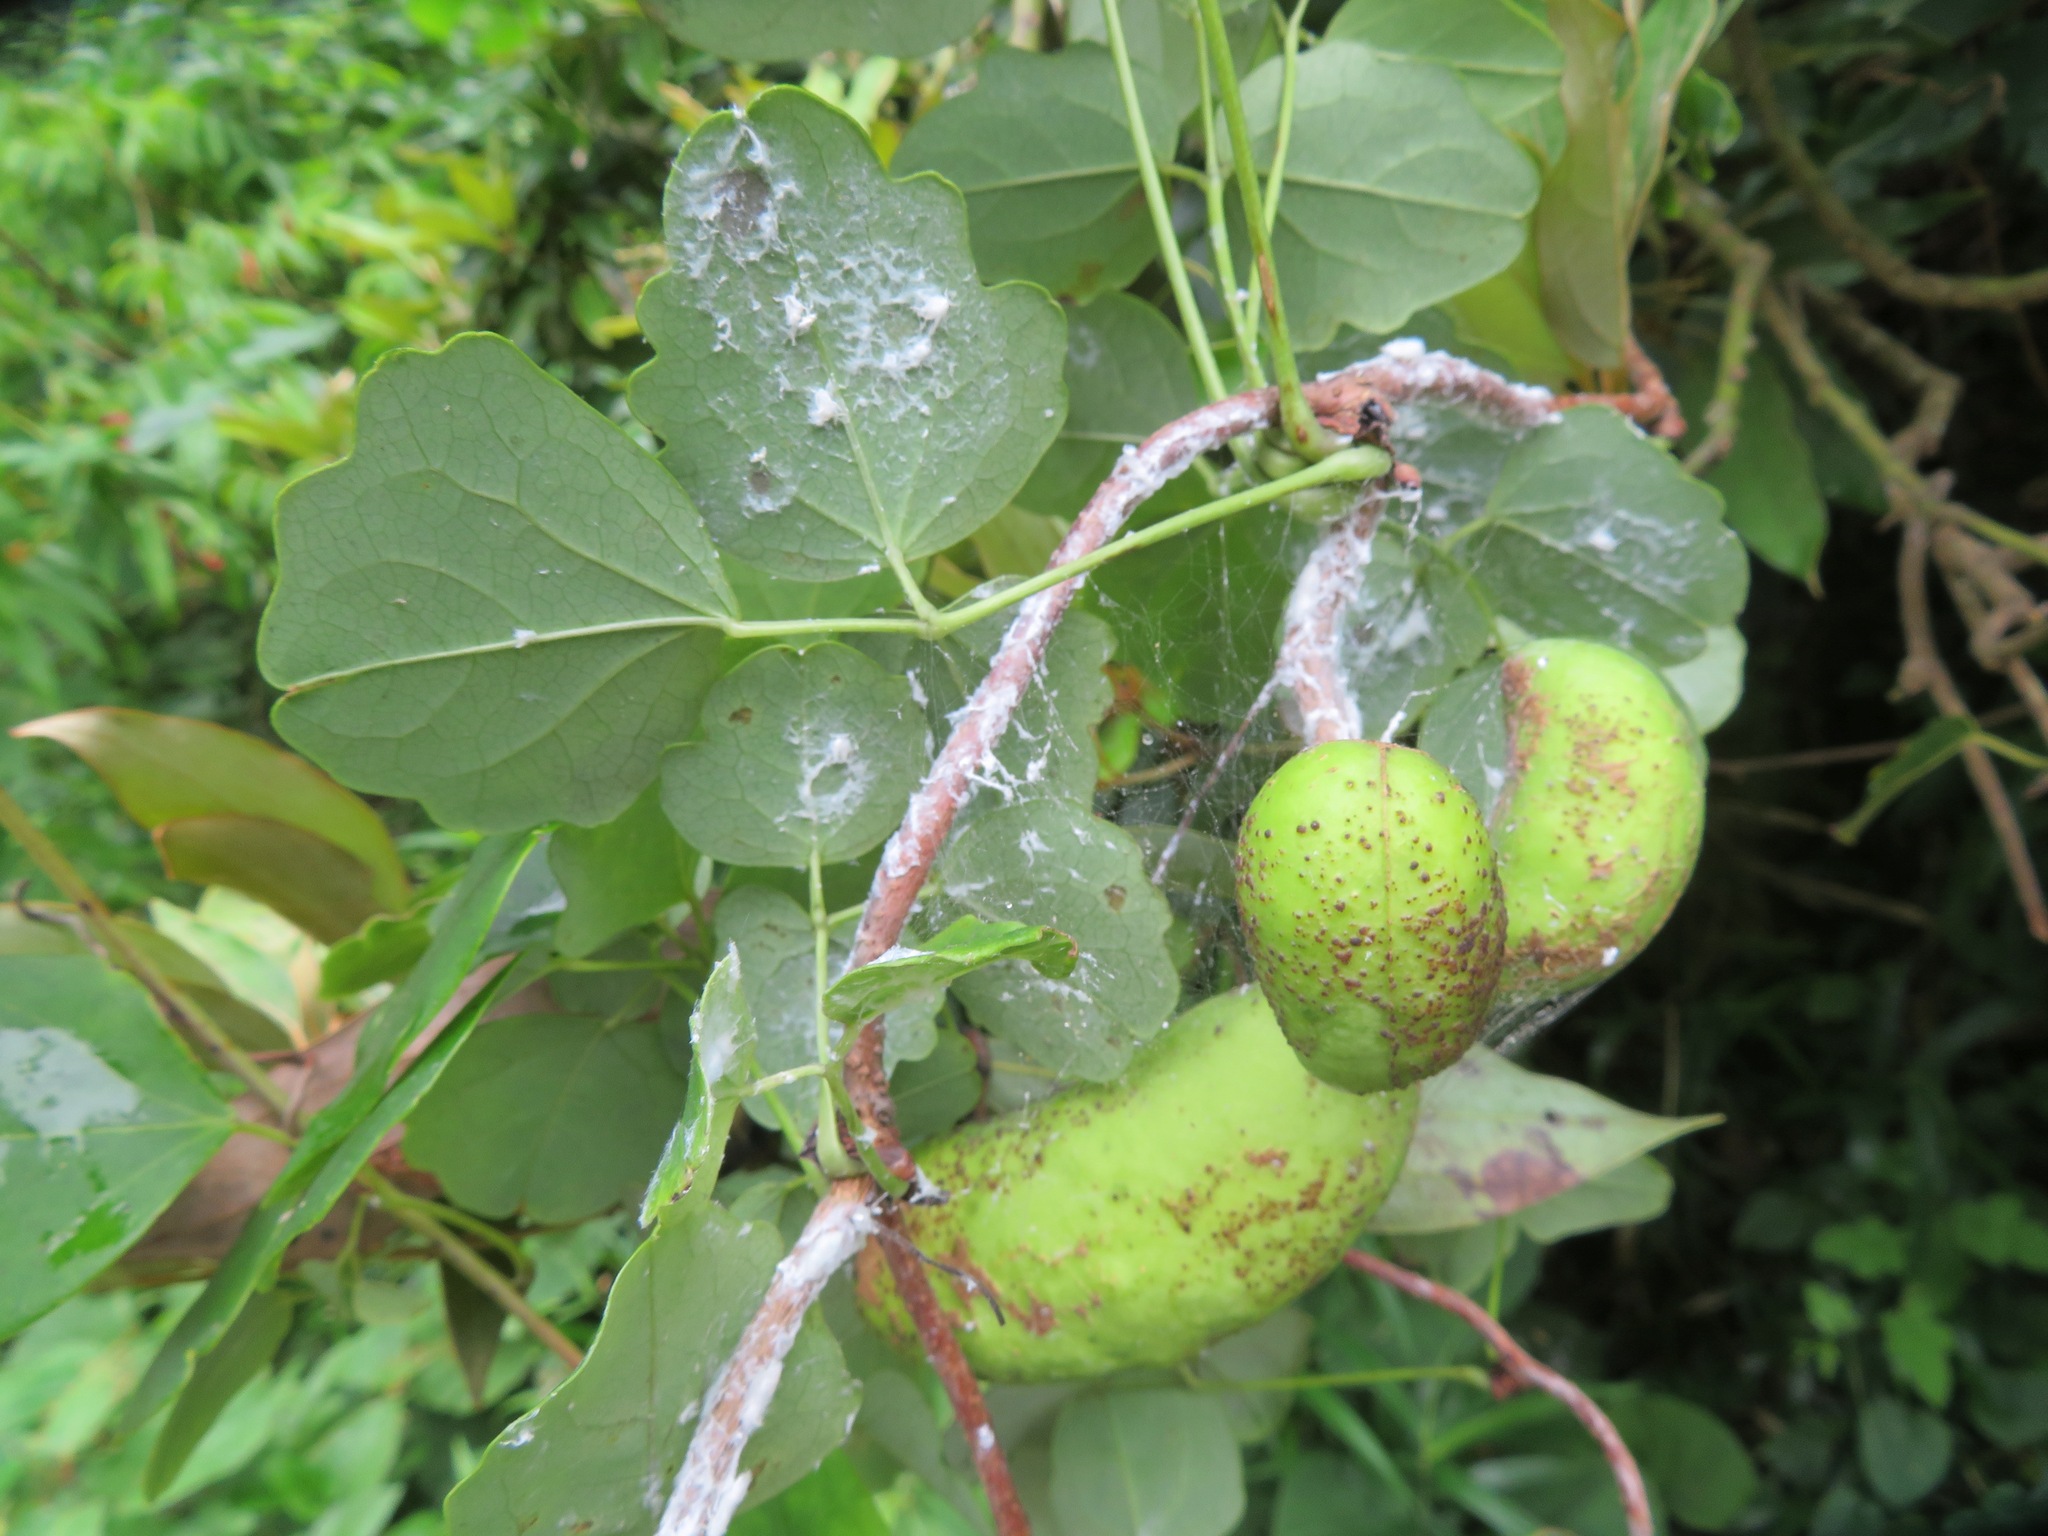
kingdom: Plantae
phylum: Tracheophyta
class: Magnoliopsida
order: Ranunculales
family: Lardizabalaceae
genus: Akebia
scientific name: Akebia trifoliata
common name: Chocolate-vine
